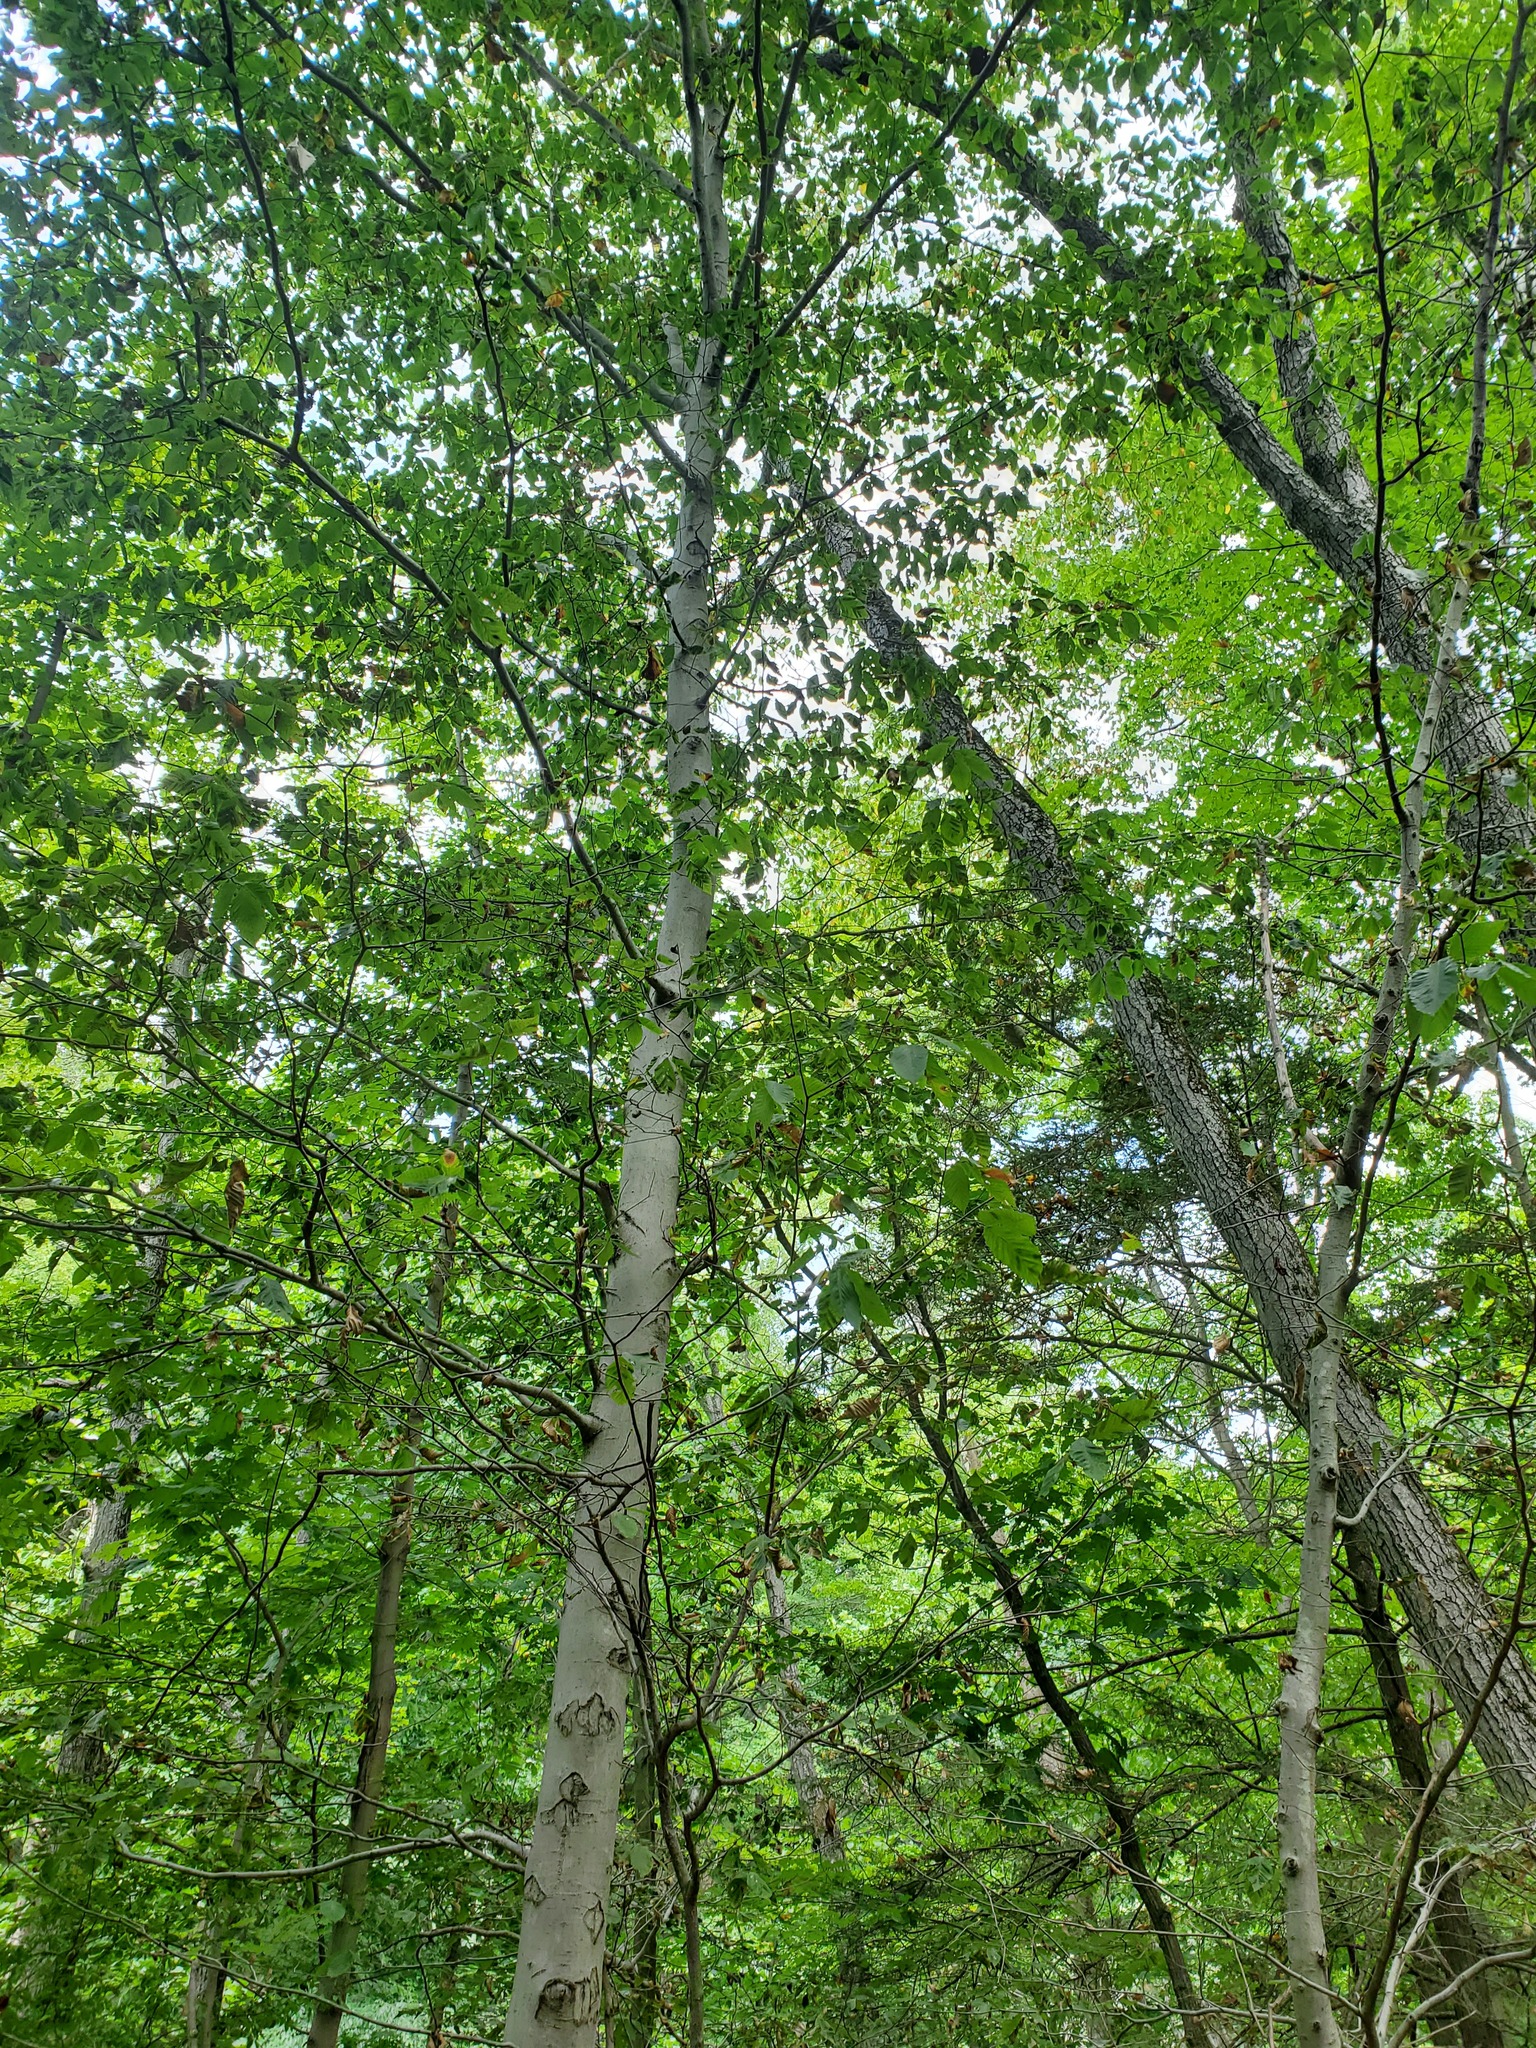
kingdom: Animalia
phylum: Nematoda
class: Chromadorea
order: Rhabditida
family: Anguinidae
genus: Litylenchus
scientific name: Litylenchus crenatae
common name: Beech leaf disease
